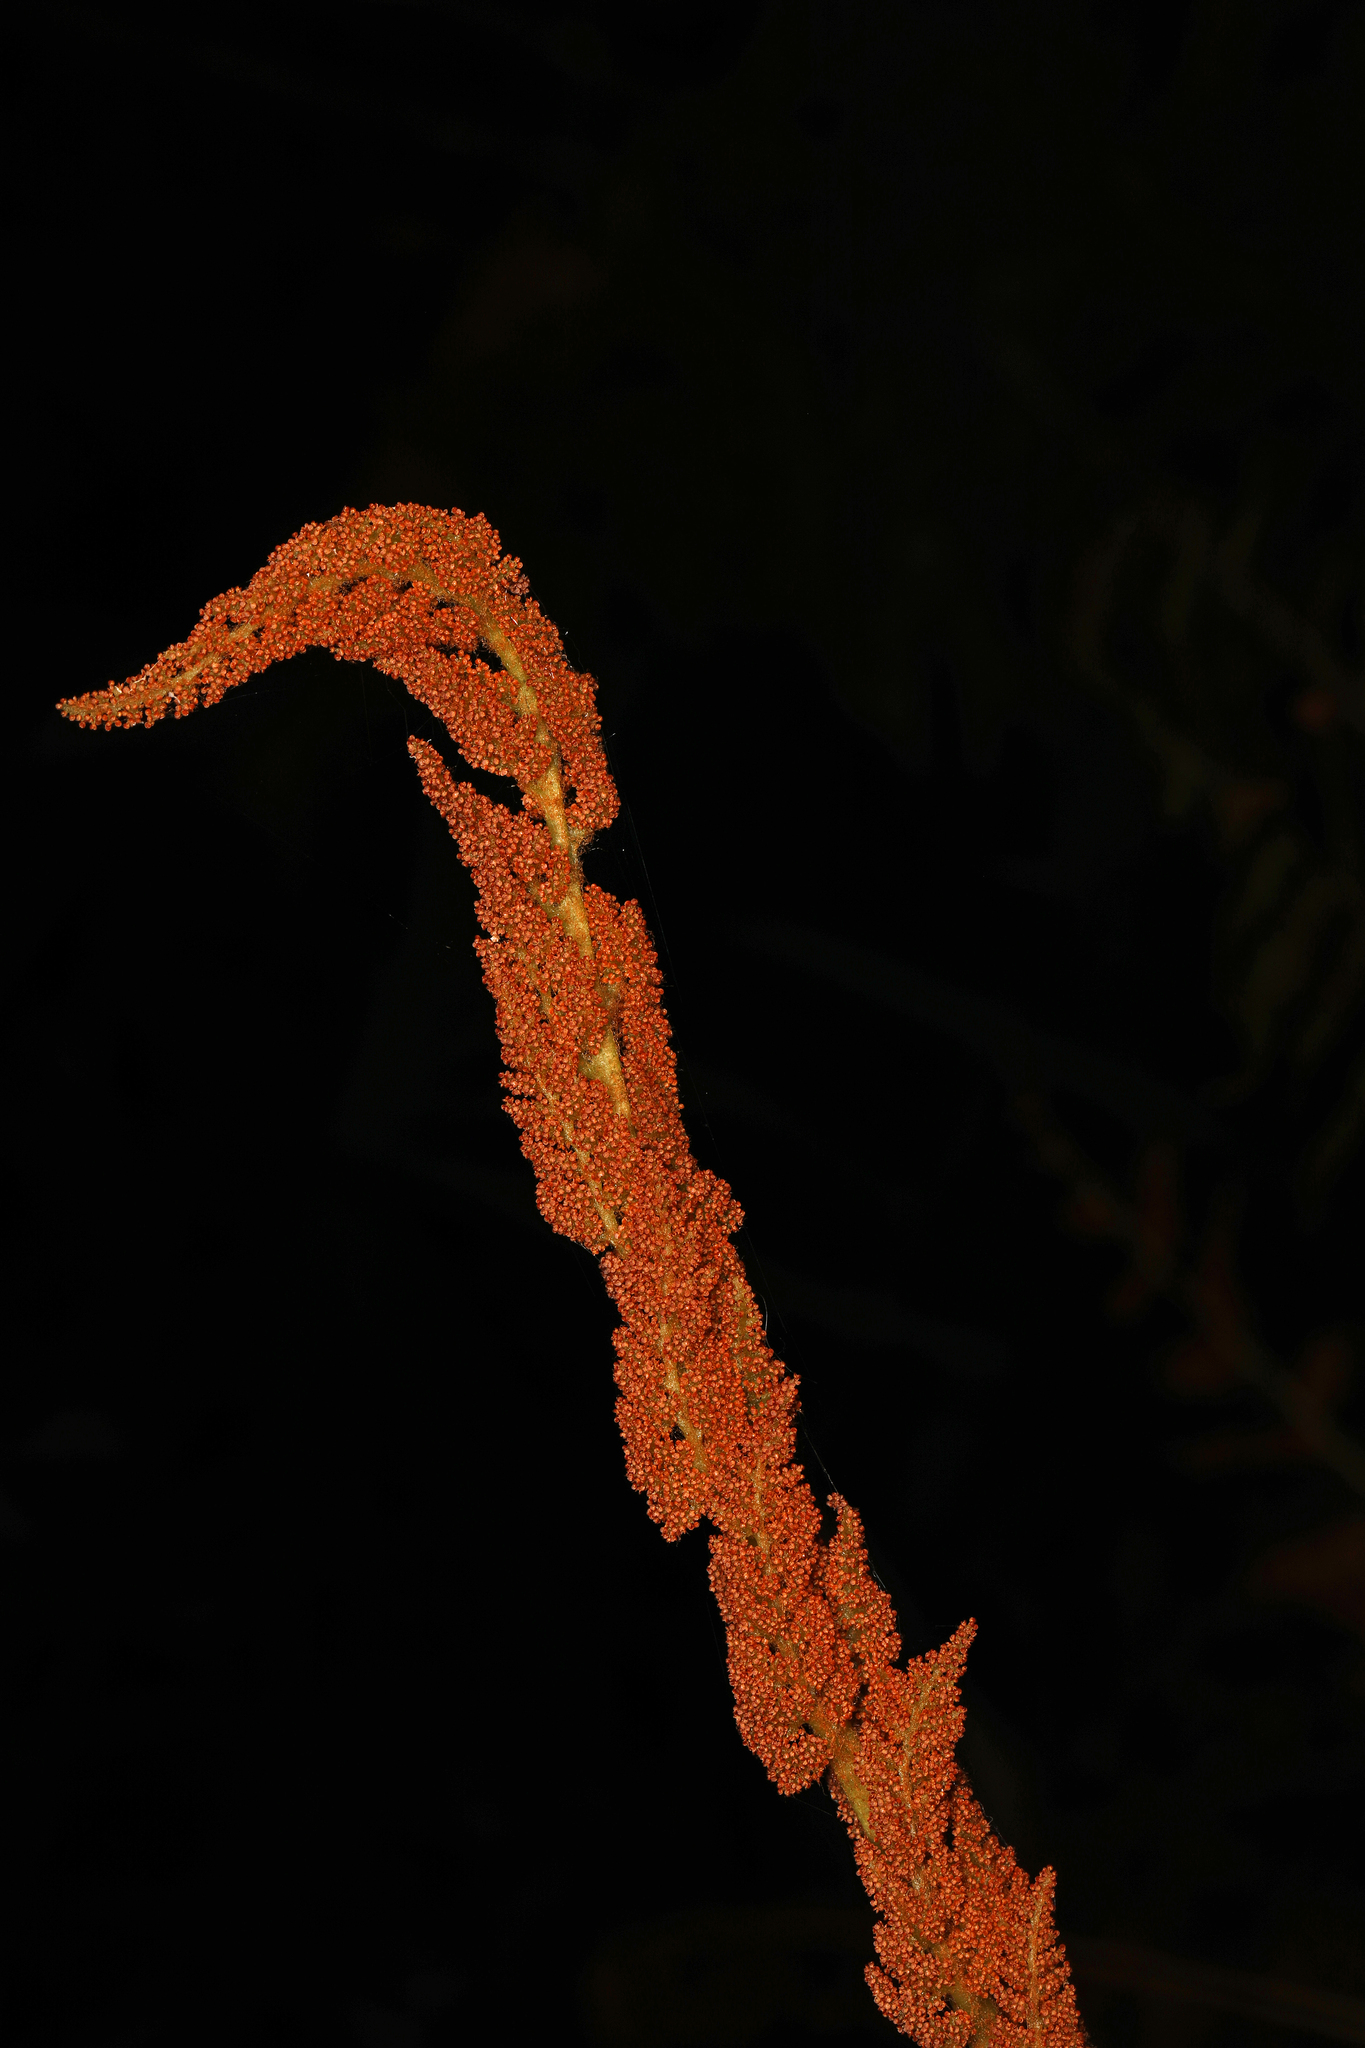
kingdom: Plantae
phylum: Tracheophyta
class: Polypodiopsida
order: Osmundales
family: Osmundaceae
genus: Osmundastrum
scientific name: Osmundastrum cinnamomeum
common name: Cinnamon fern
